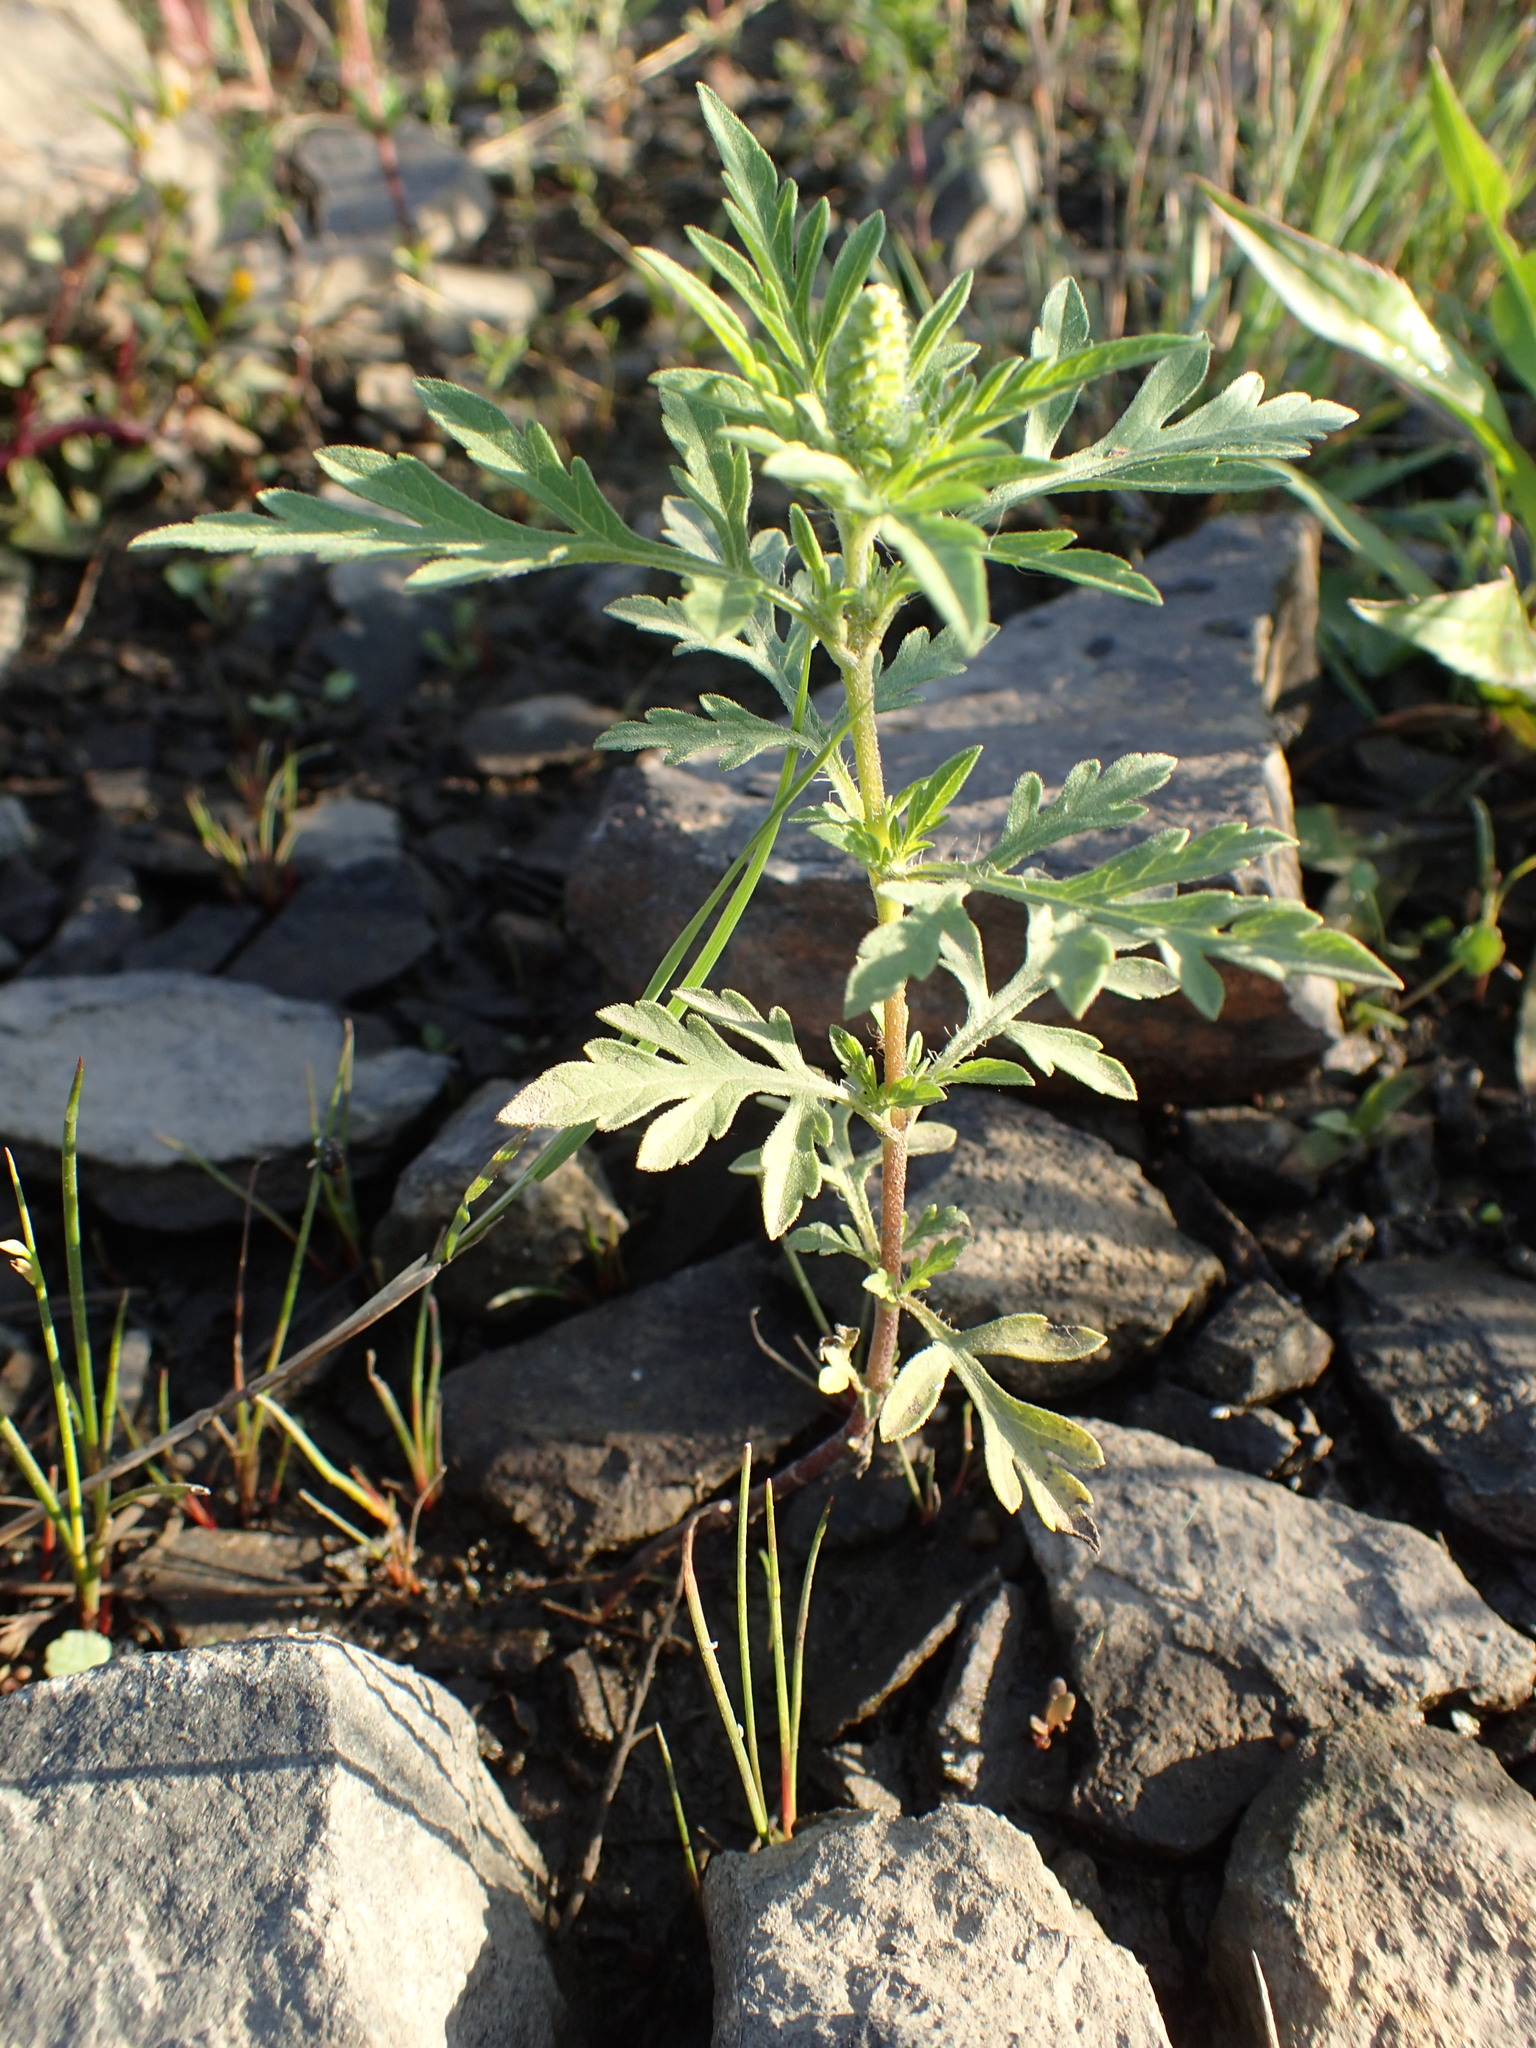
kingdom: Plantae
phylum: Tracheophyta
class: Magnoliopsida
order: Asterales
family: Asteraceae
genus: Ambrosia
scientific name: Ambrosia artemisiifolia
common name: Annual ragweed
